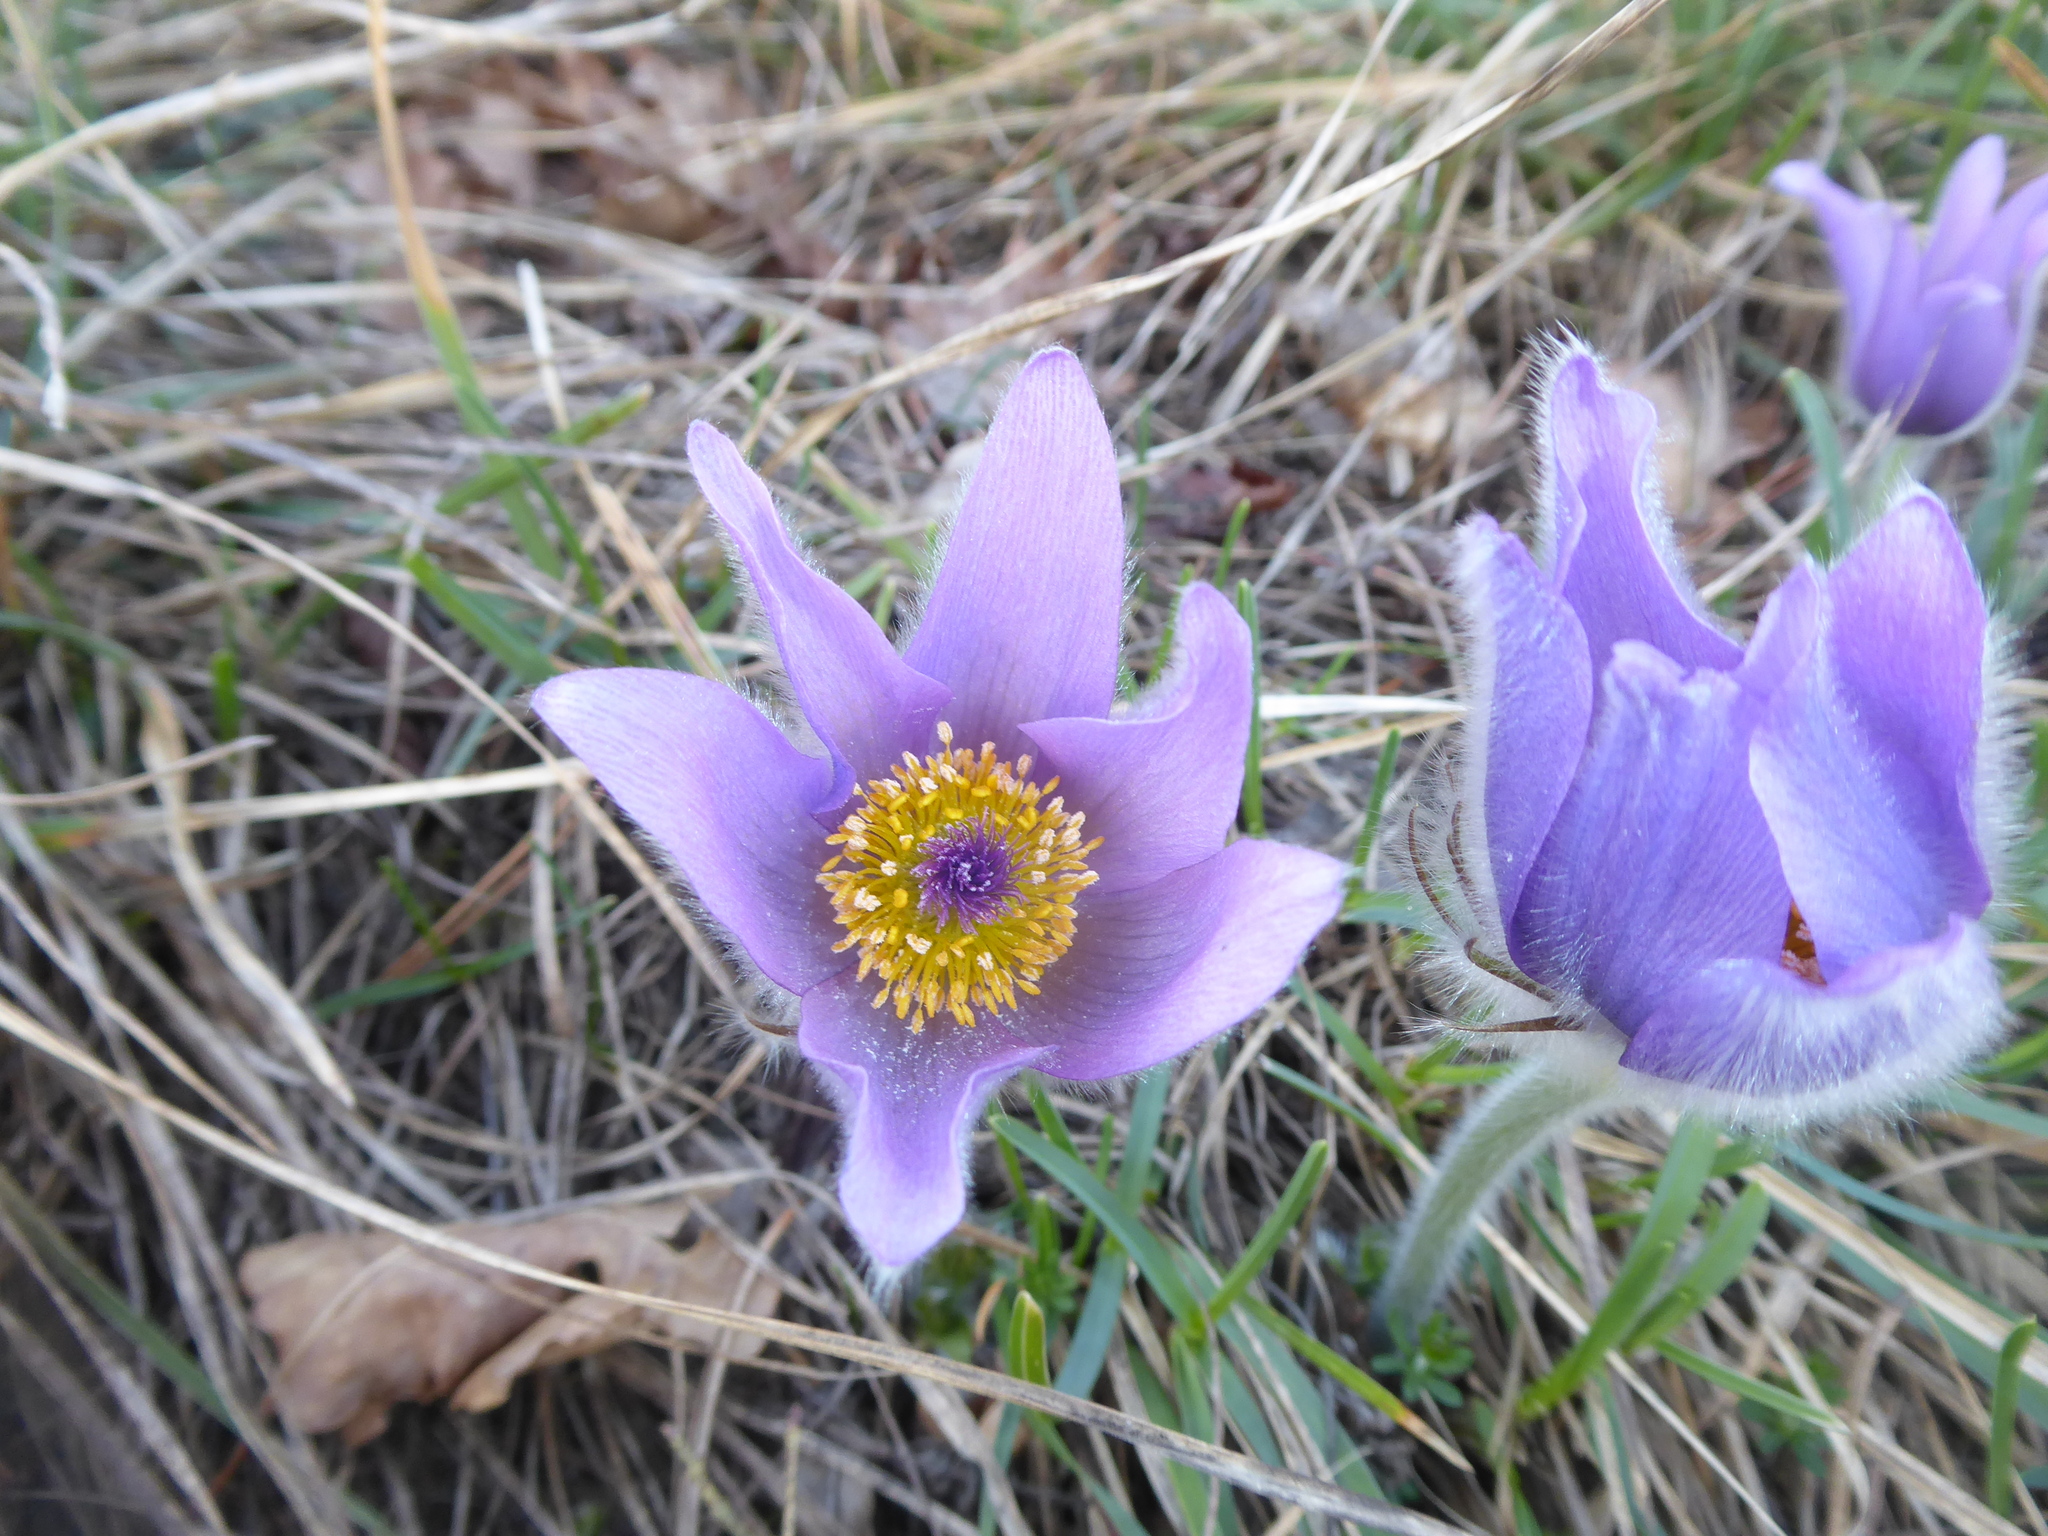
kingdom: Plantae
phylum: Tracheophyta
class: Magnoliopsida
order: Ranunculales
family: Ranunculaceae
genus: Pulsatilla
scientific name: Pulsatilla grandis
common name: Greater pasque flower
